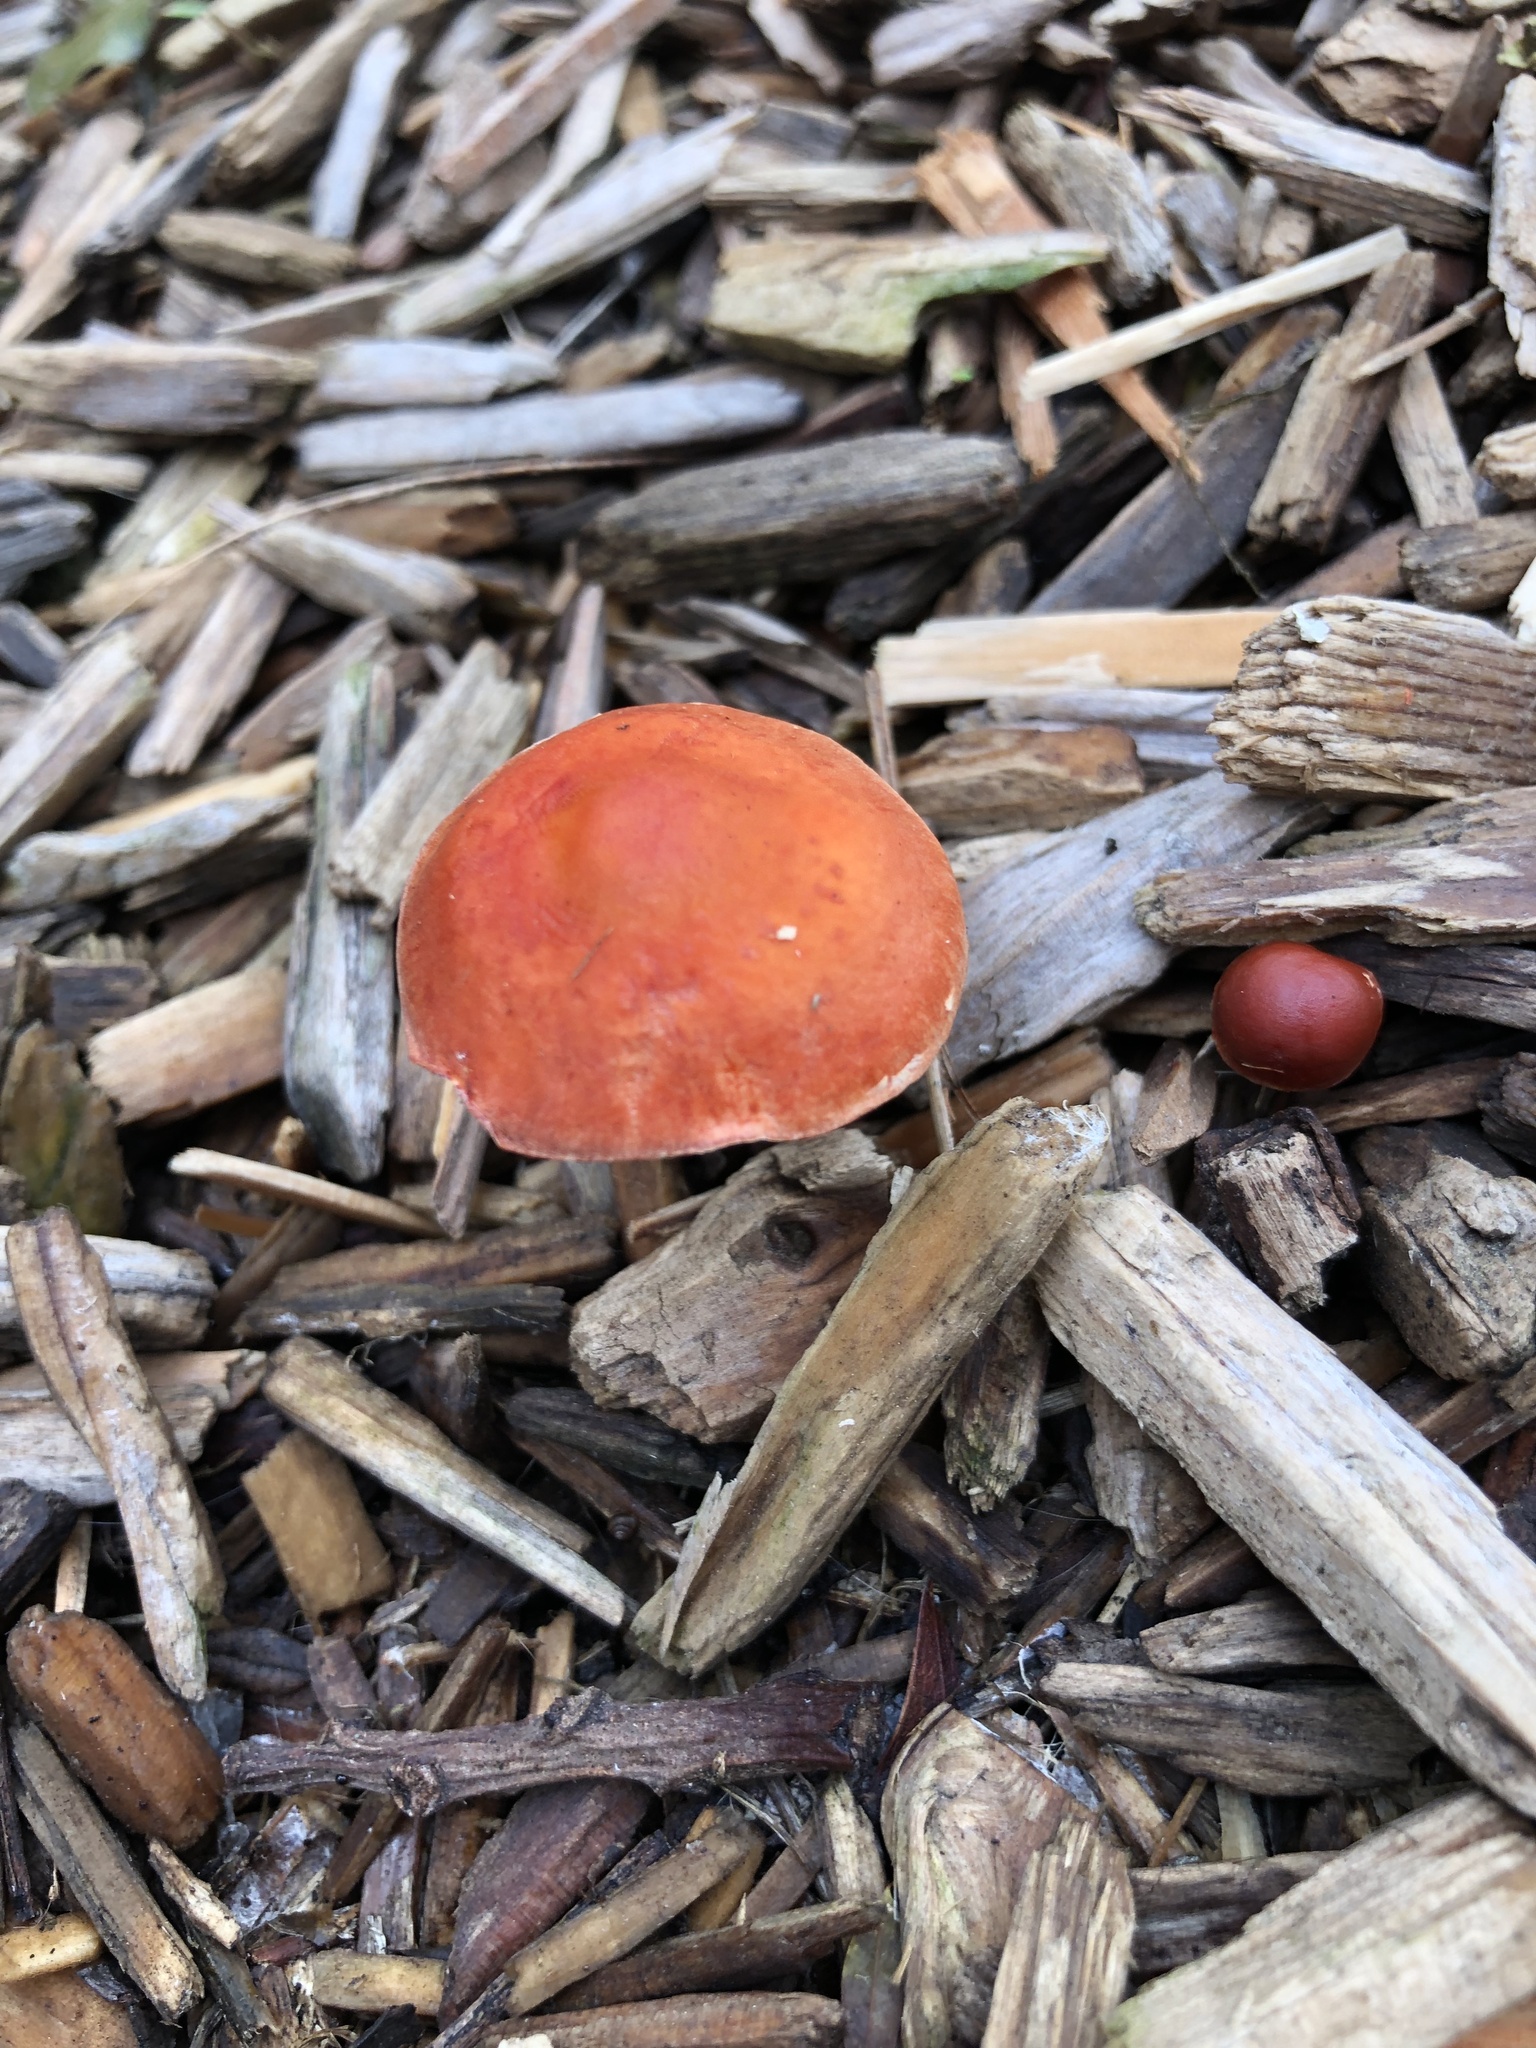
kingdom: Fungi
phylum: Basidiomycota
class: Agaricomycetes
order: Agaricales
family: Strophariaceae
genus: Leratiomyces
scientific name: Leratiomyces ceres
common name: Redlead roundhead
